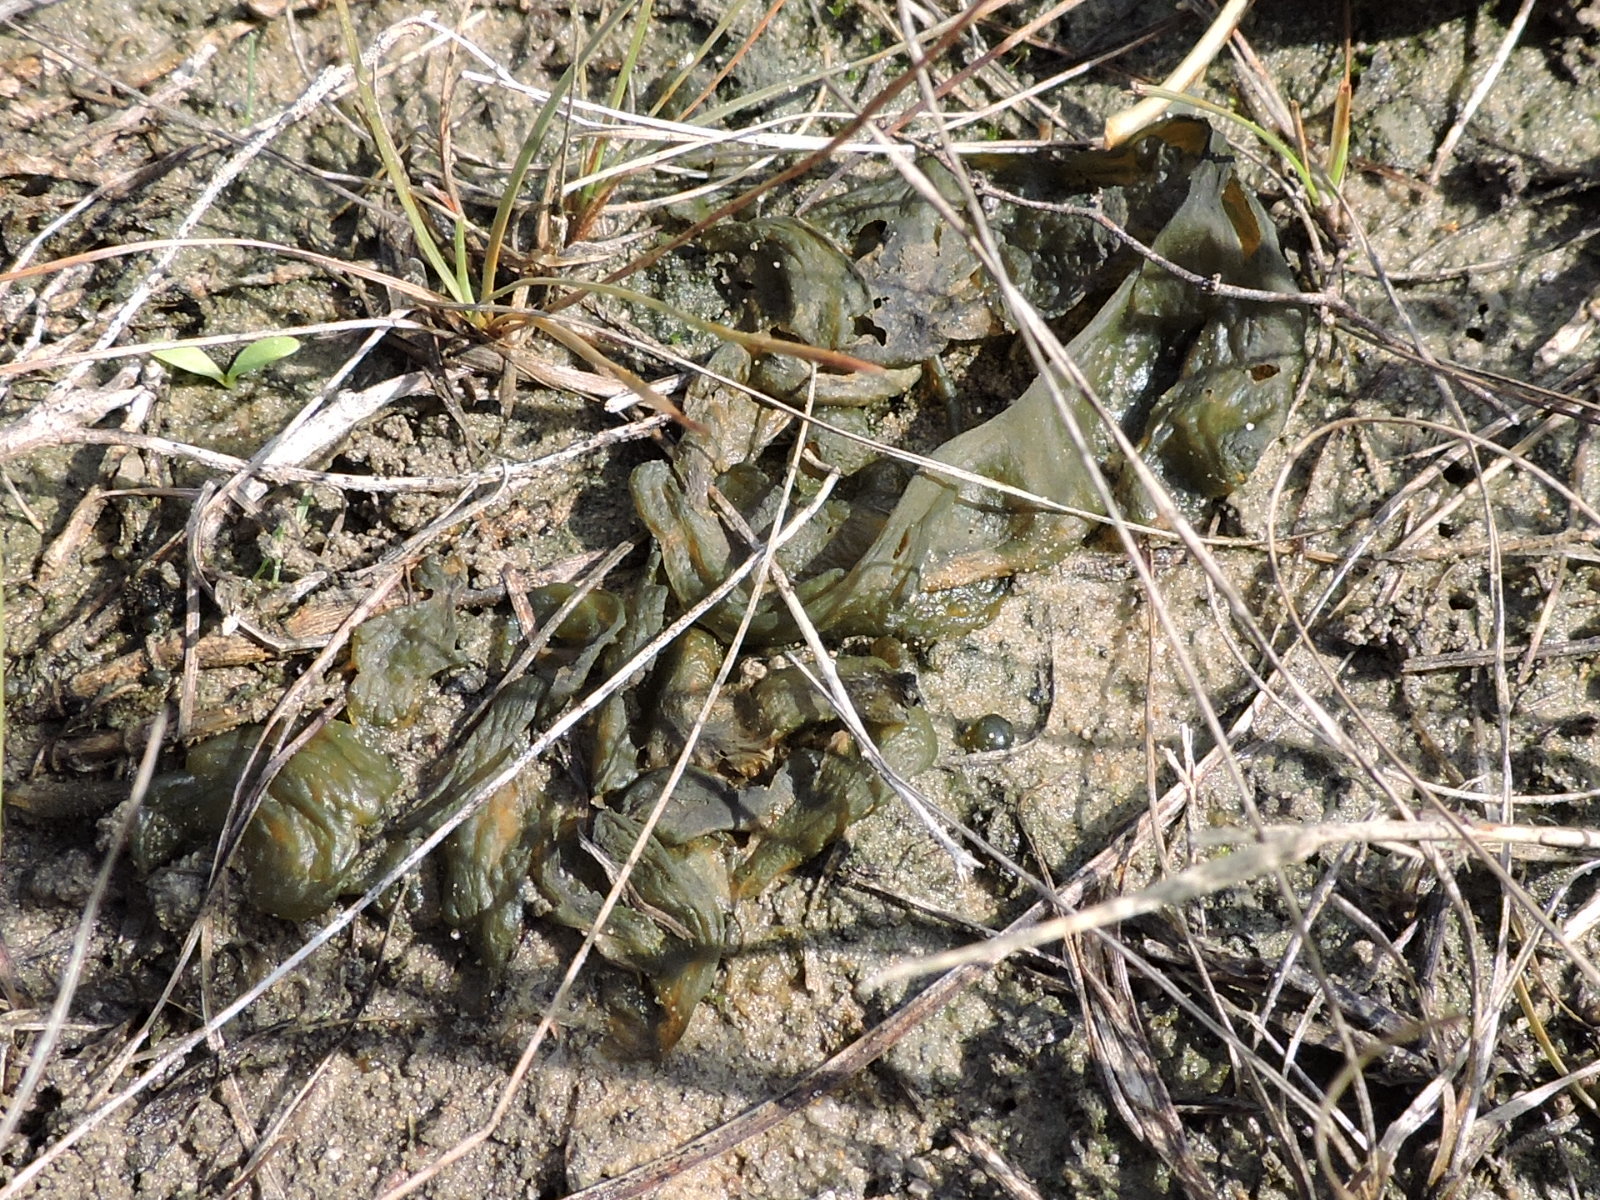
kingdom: Bacteria
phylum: Cyanobacteria
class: Cyanobacteriia
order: Cyanobacteriales
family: Nostocaceae
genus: Nostoc
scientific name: Nostoc commune
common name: Star jelly
